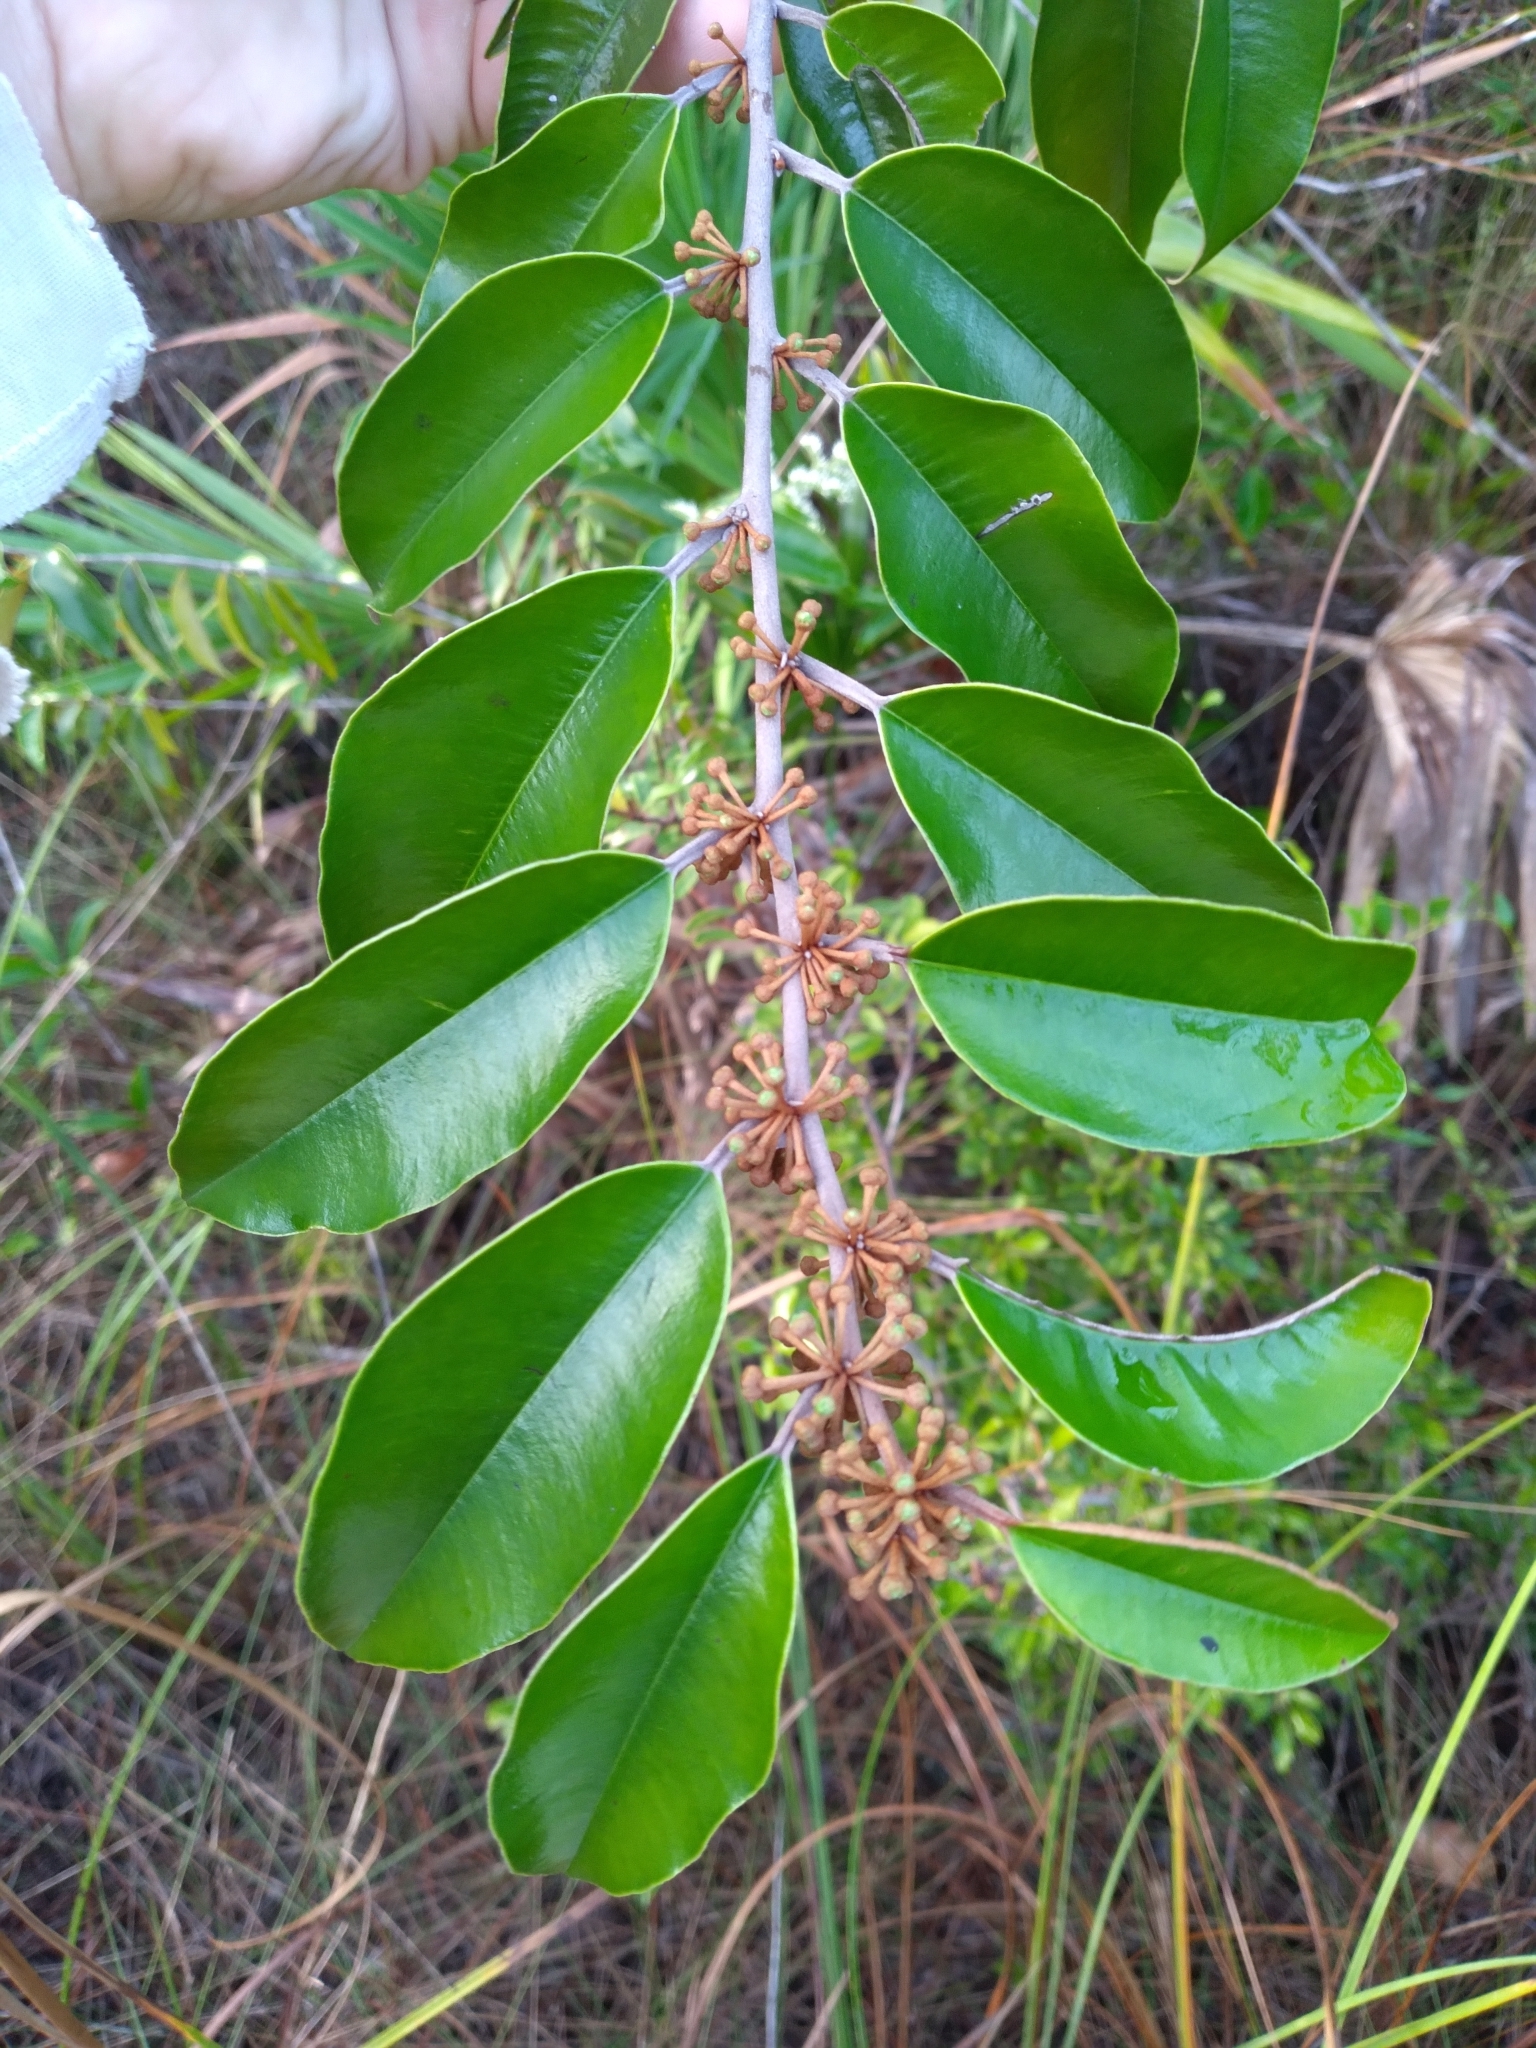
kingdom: Plantae
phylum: Tracheophyta
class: Magnoliopsida
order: Ericales
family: Sapotaceae
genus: Chrysophyllum
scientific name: Chrysophyllum oliviforme
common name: Satinleaf
